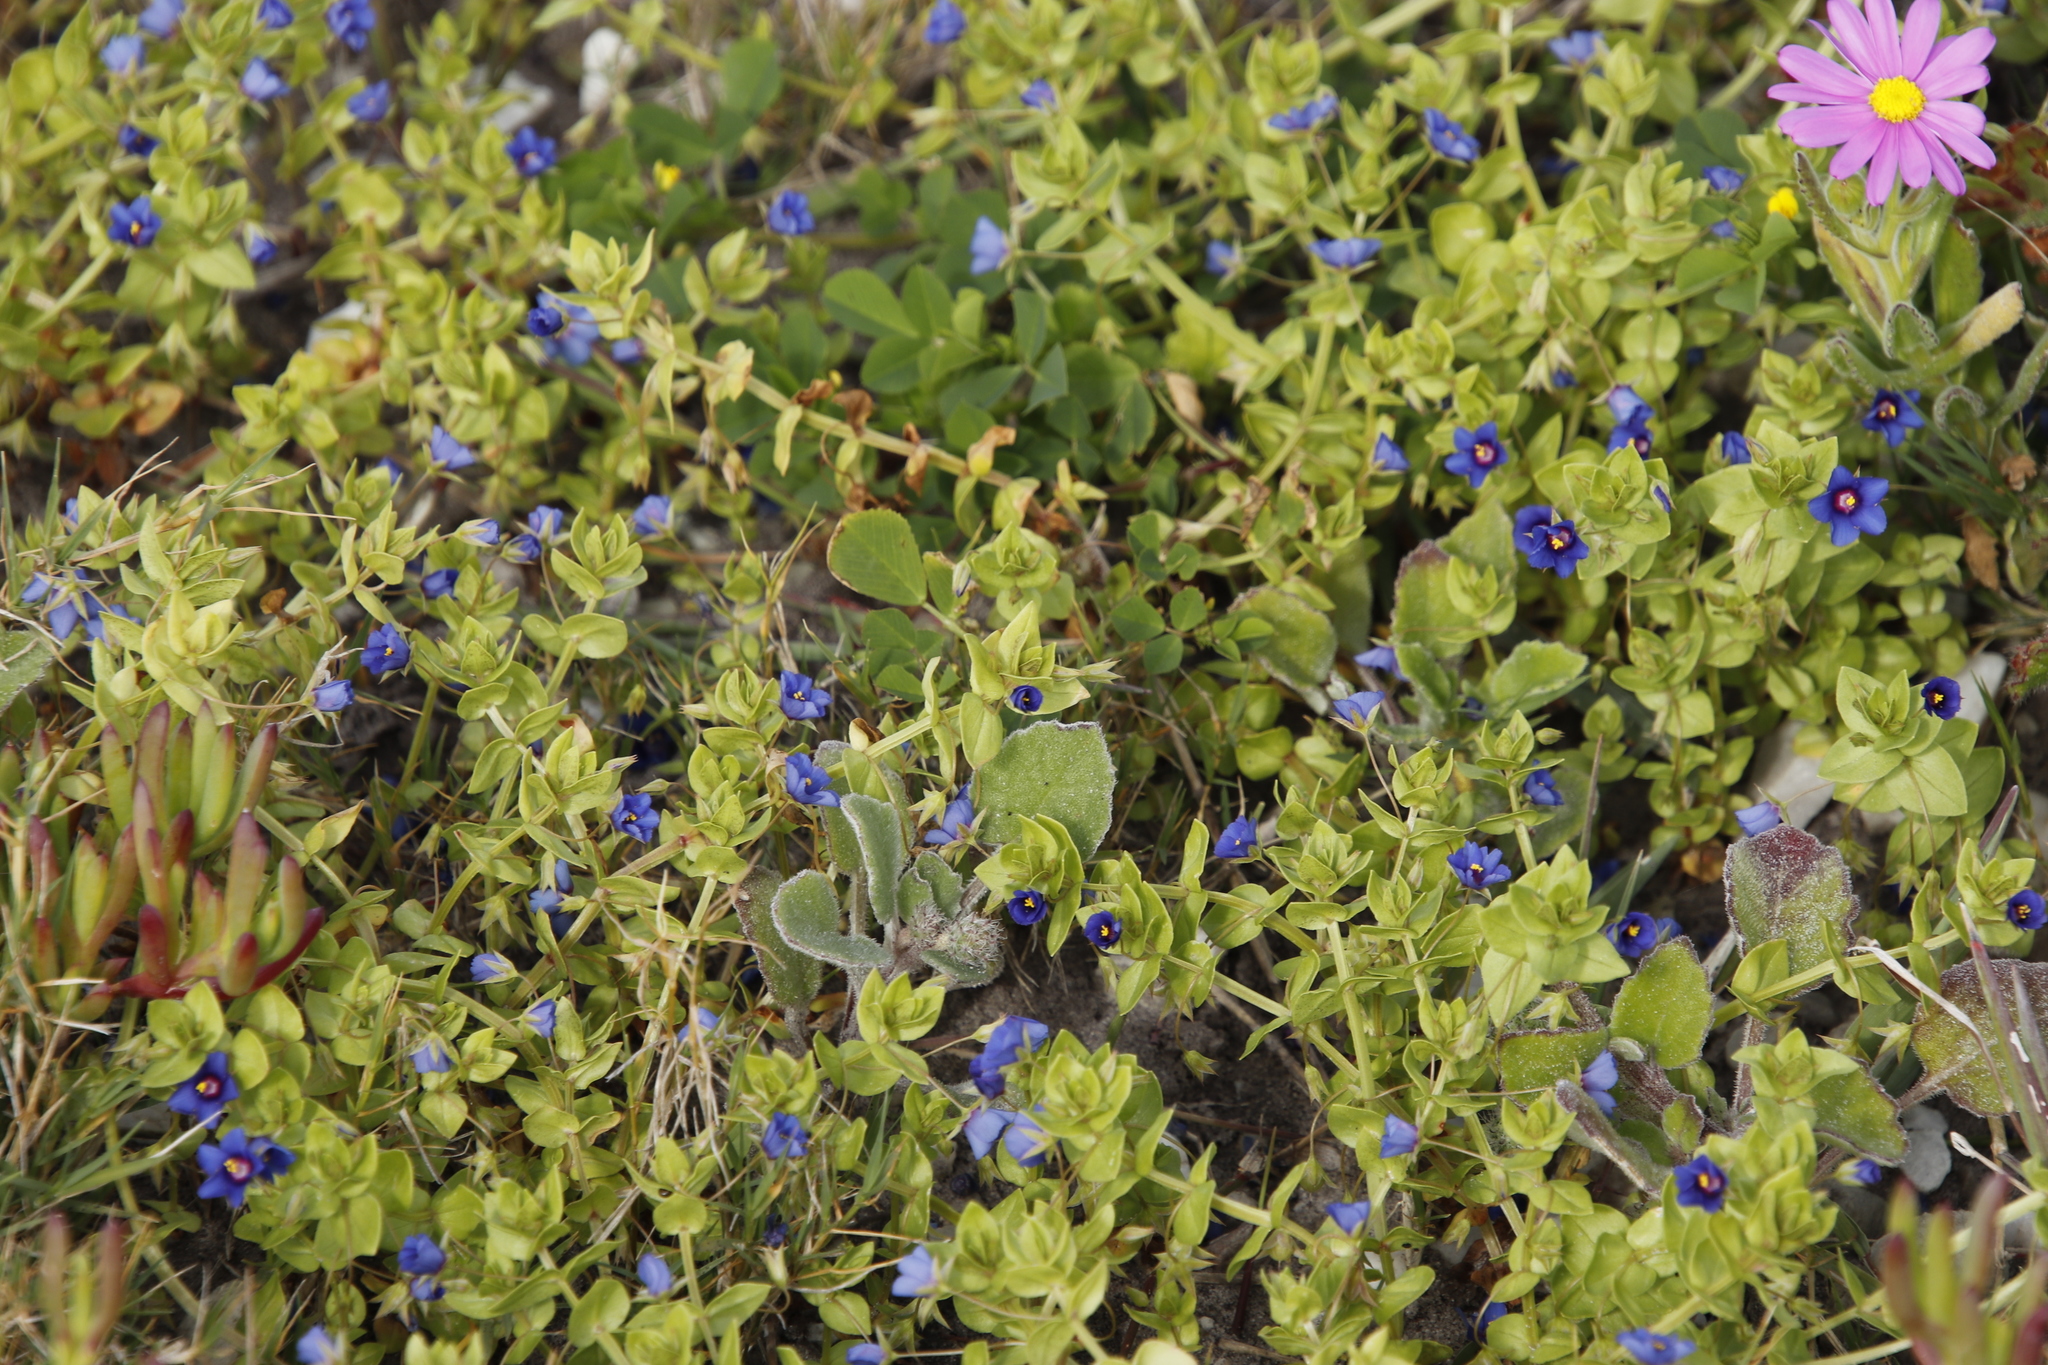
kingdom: Plantae
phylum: Tracheophyta
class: Magnoliopsida
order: Ericales
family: Primulaceae
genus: Lysimachia
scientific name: Lysimachia loeflingii
